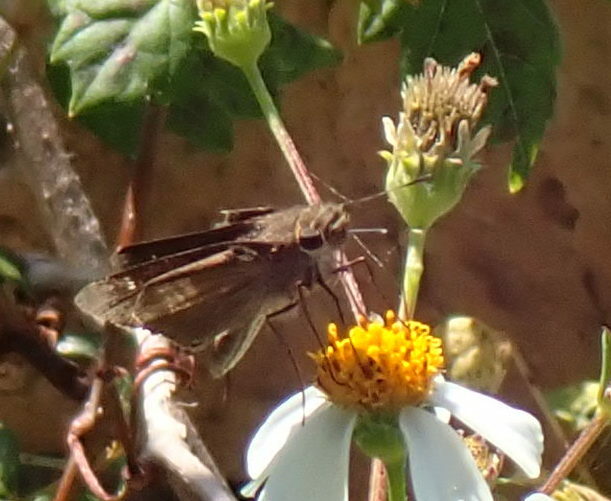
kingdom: Animalia
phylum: Arthropoda
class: Insecta
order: Lepidoptera
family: Hesperiidae
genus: Panoquina
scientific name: Panoquina ocola
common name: Ocola skipper
